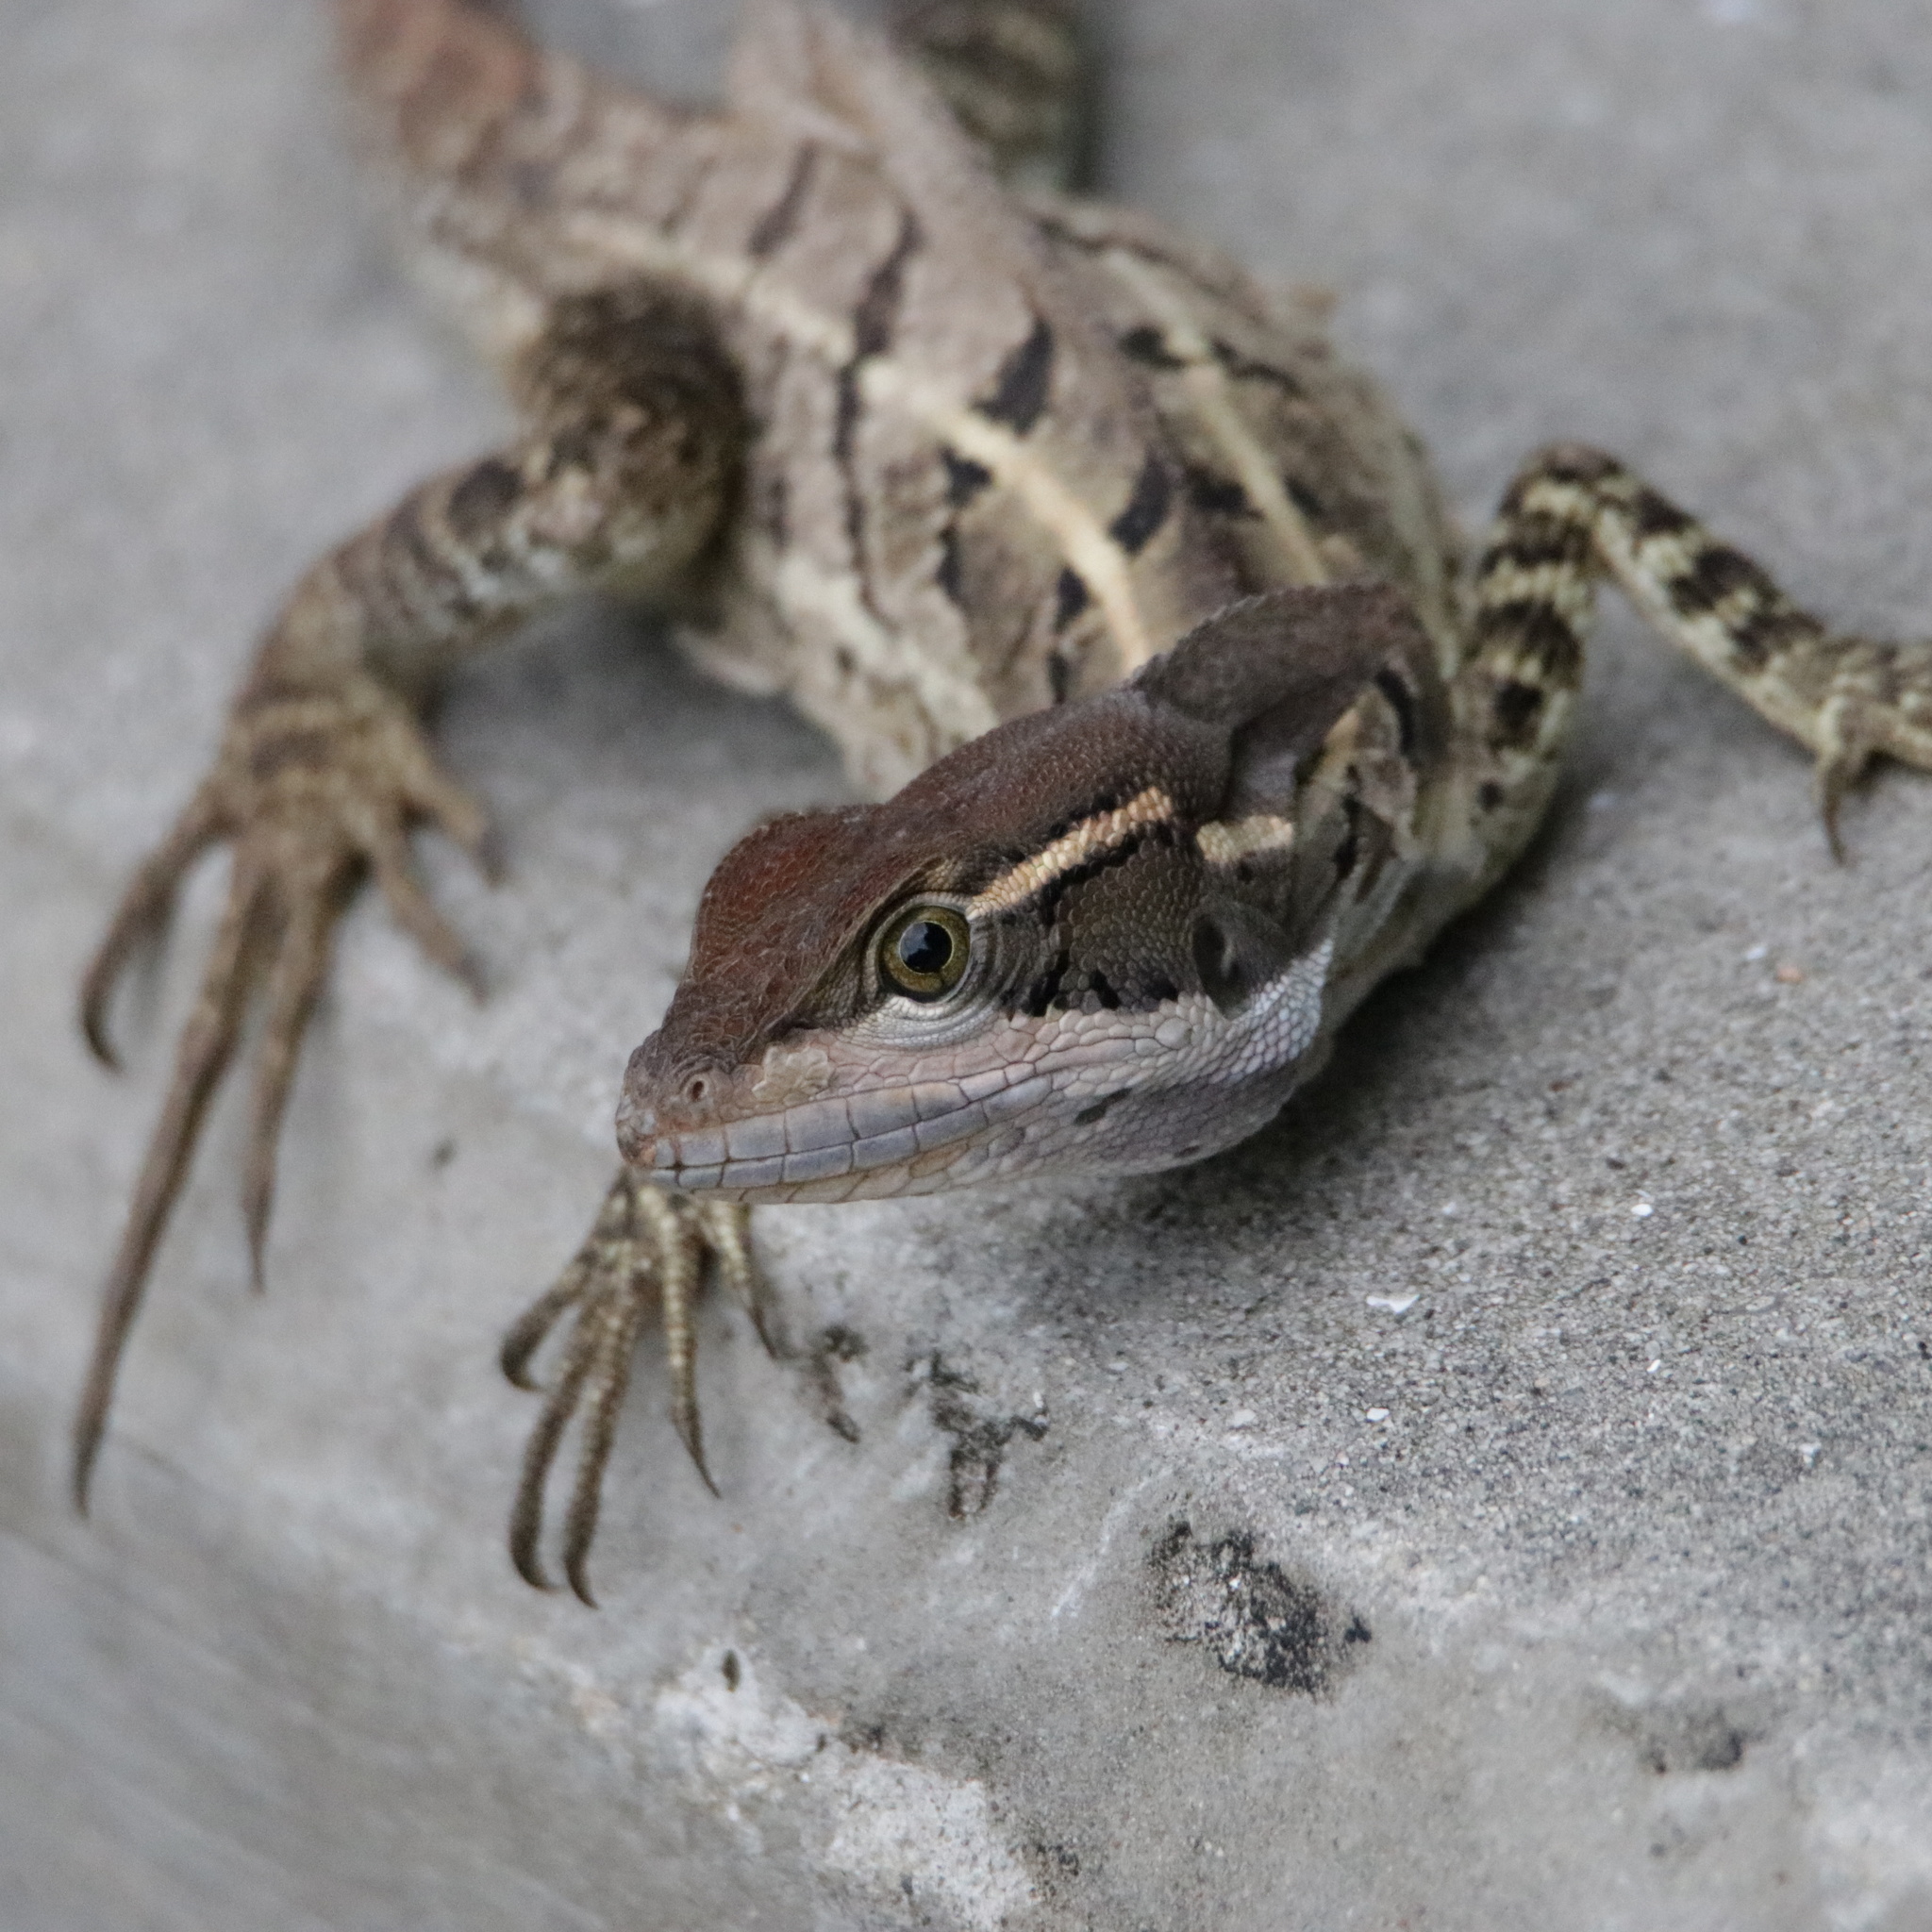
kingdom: Animalia
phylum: Chordata
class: Squamata
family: Corytophanidae
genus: Basiliscus
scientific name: Basiliscus basiliscus
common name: Common basilisk
